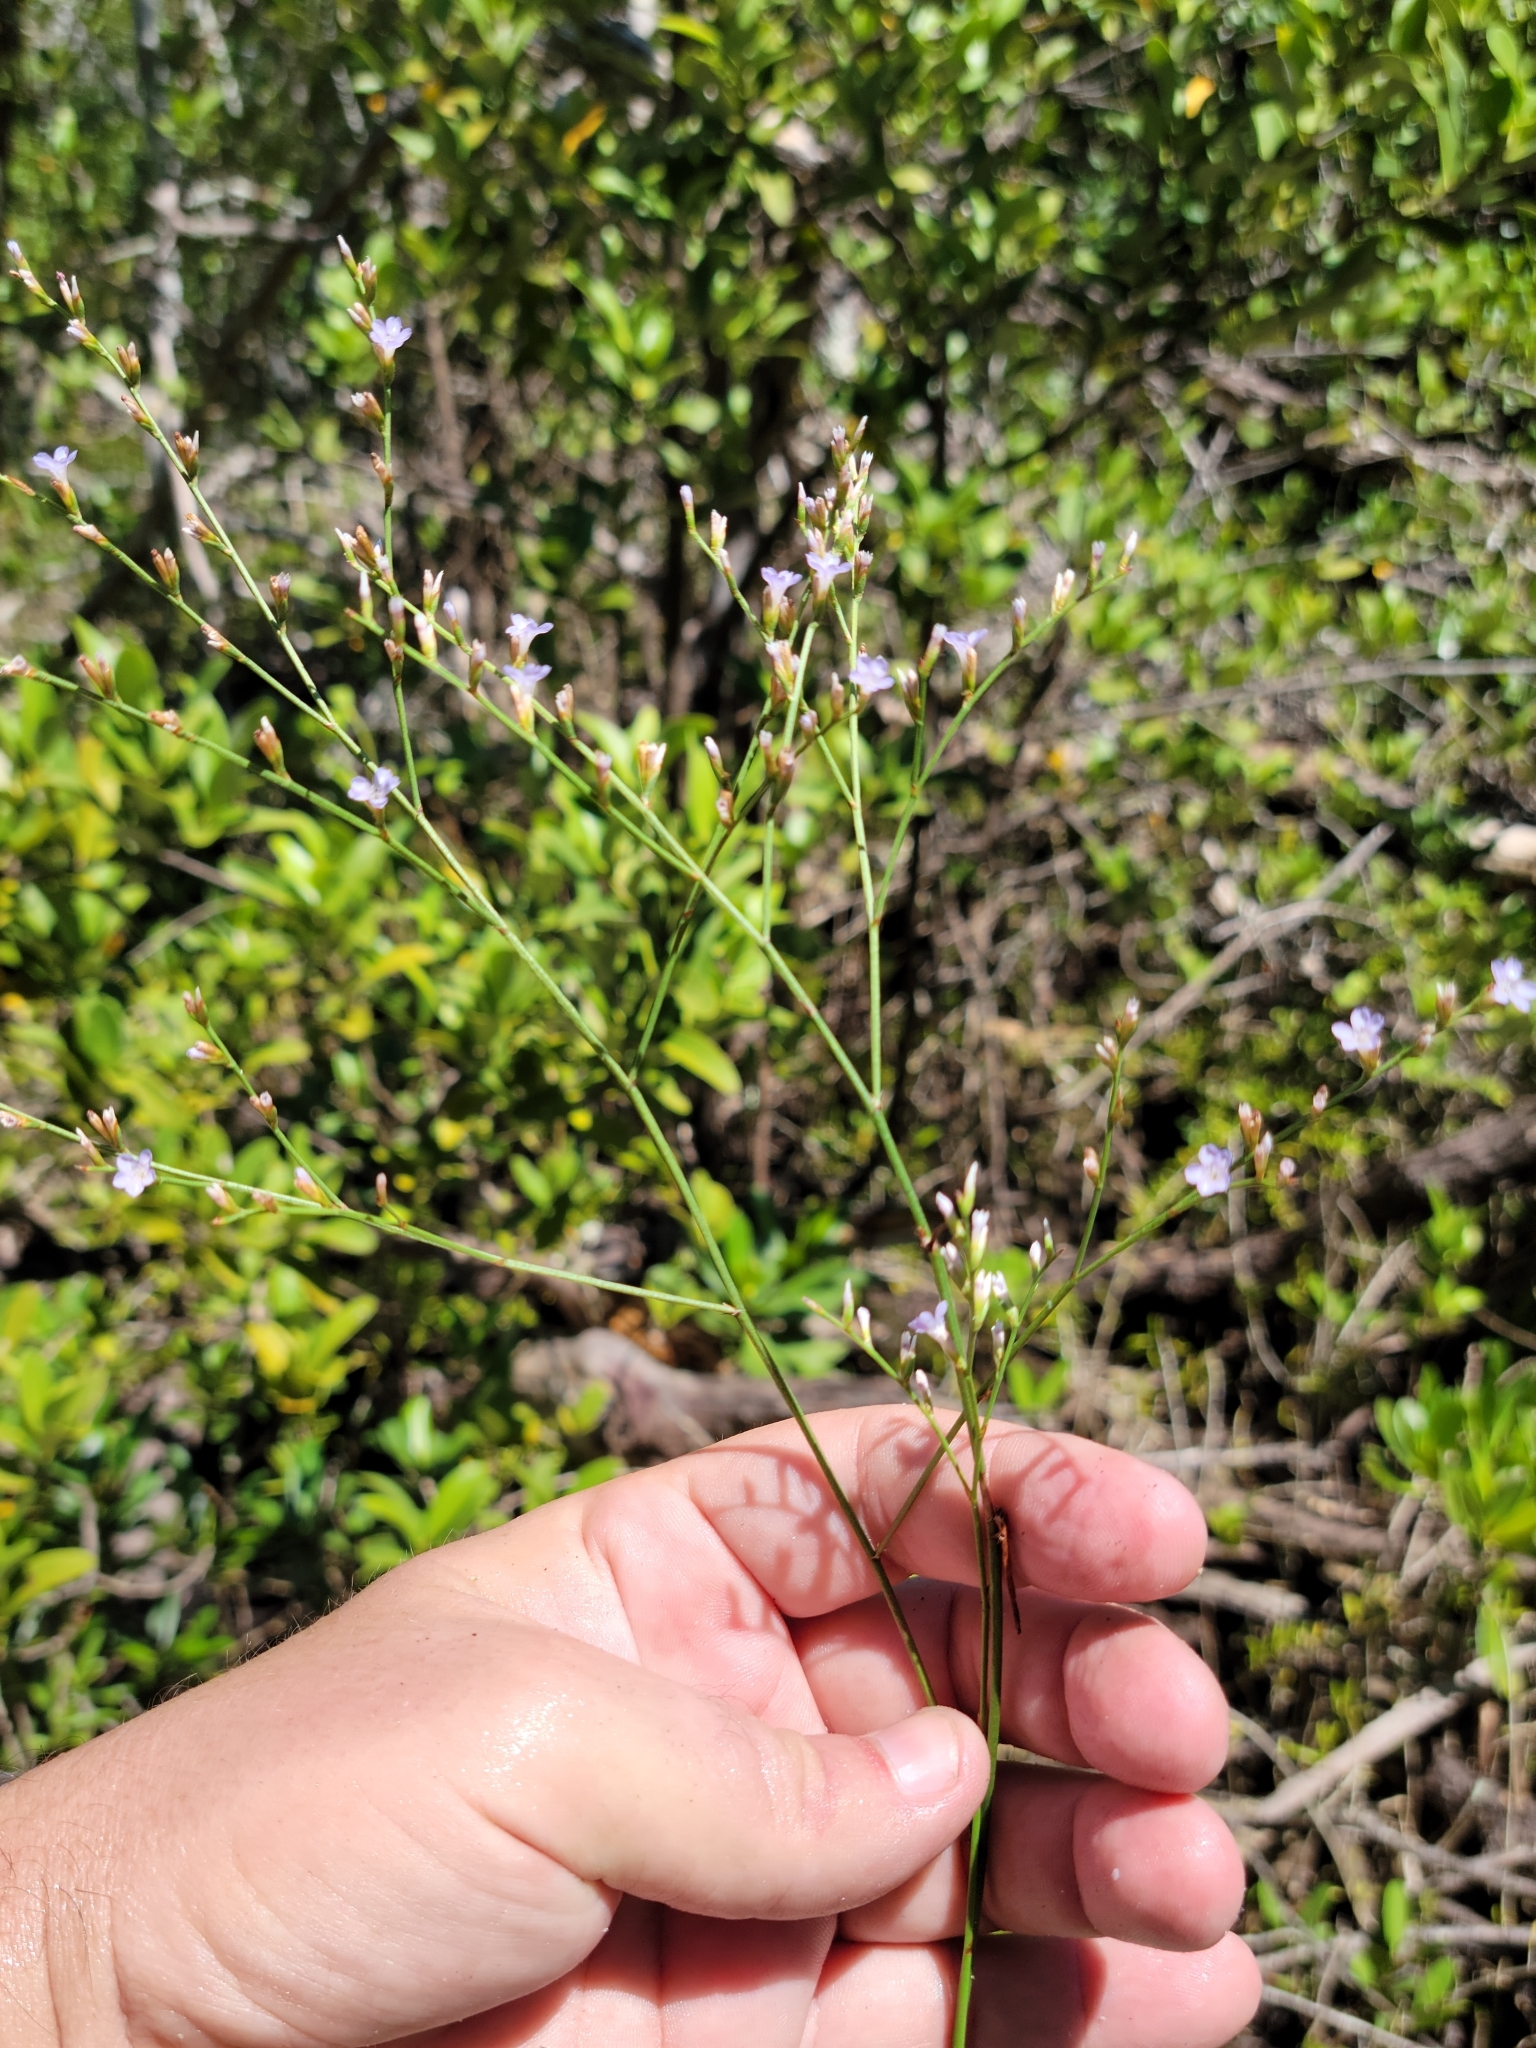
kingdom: Plantae
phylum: Tracheophyta
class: Magnoliopsida
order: Caryophyllales
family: Plumbaginaceae
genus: Limonium
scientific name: Limonium carolinianum
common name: Carolina sea lavender
